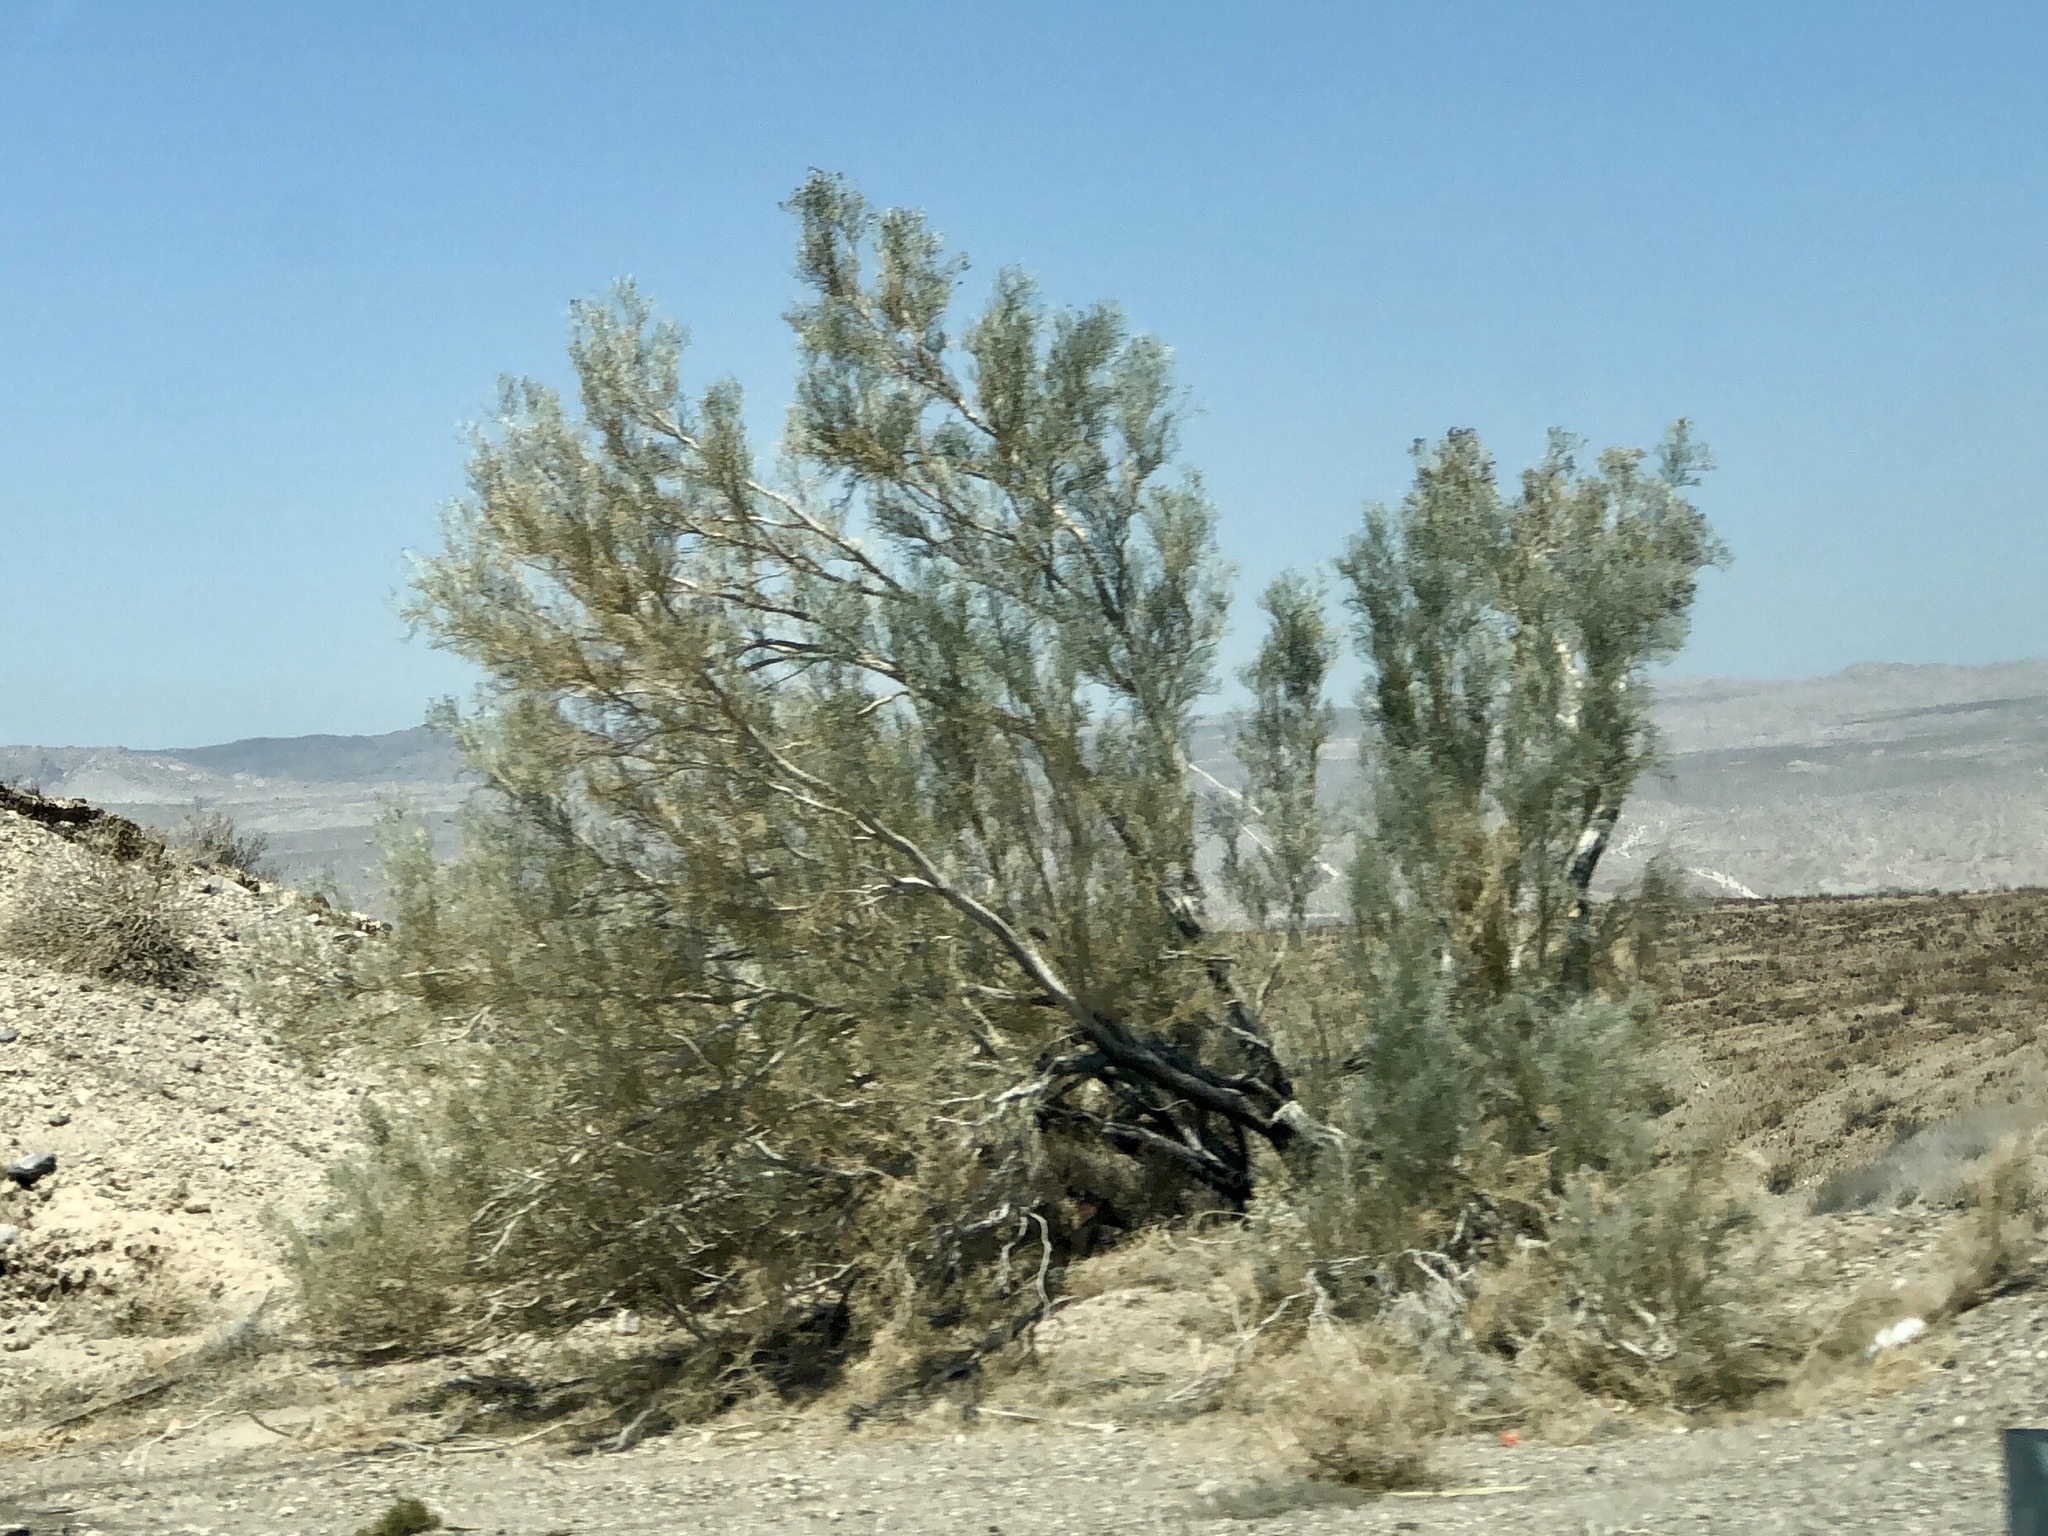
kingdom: Plantae
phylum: Tracheophyta
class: Magnoliopsida
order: Fabales
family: Fabaceae
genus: Psorothamnus
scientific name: Psorothamnus spinosus
